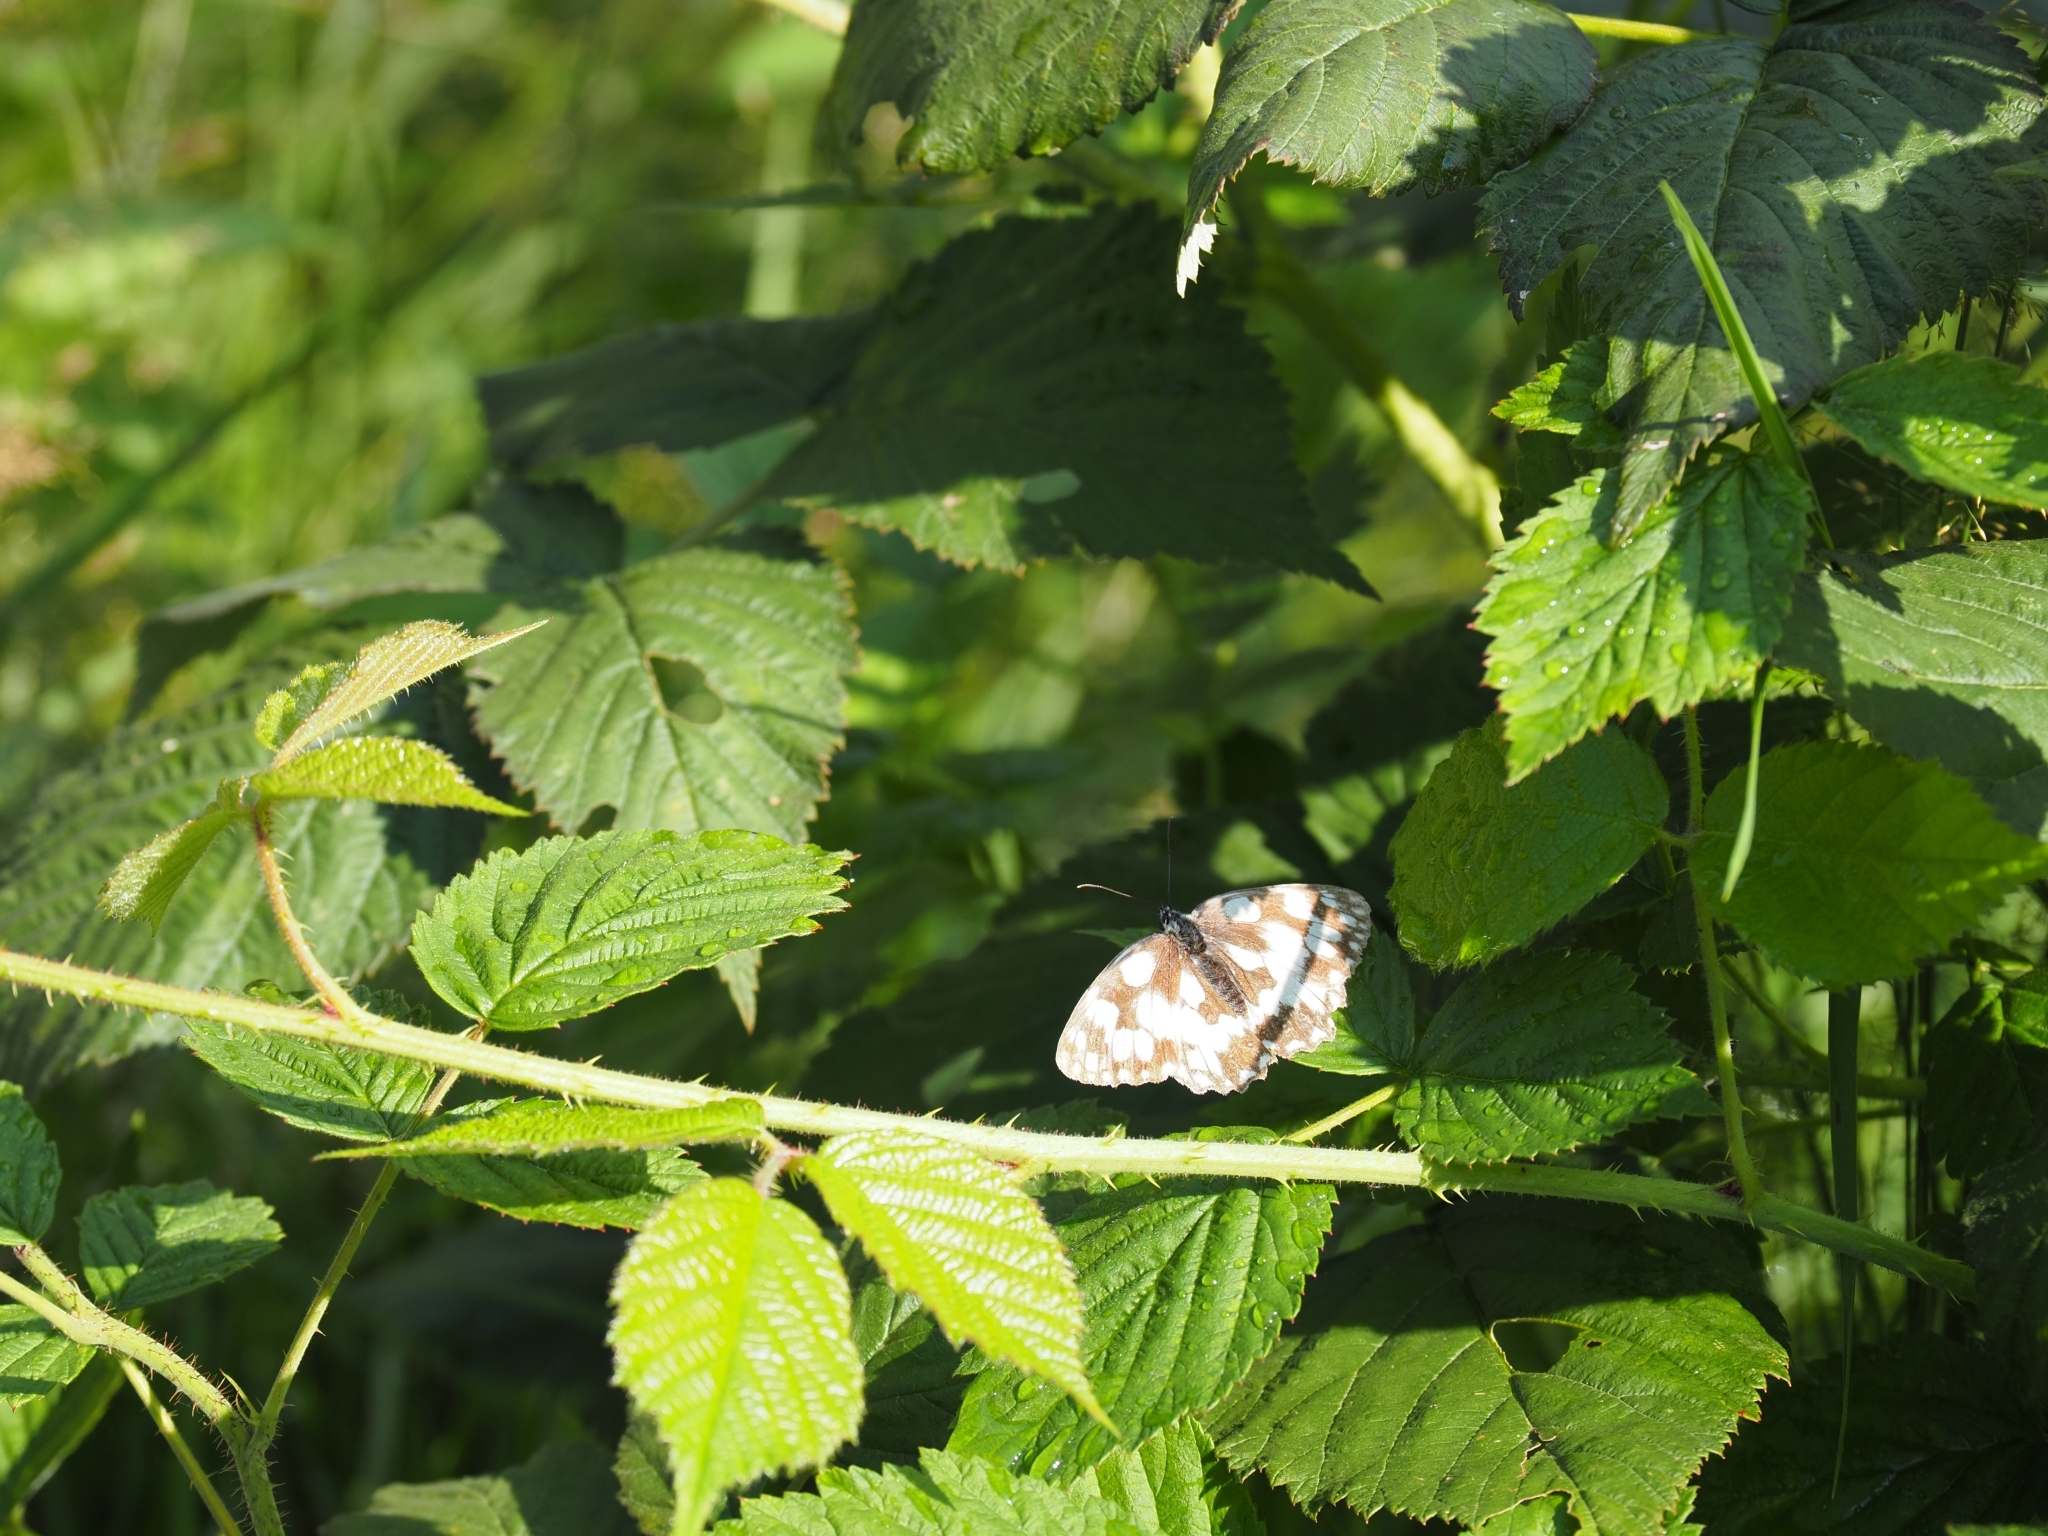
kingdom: Animalia
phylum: Arthropoda
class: Insecta
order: Lepidoptera
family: Nymphalidae
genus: Melanargia
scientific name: Melanargia galathea
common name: Marbled white
